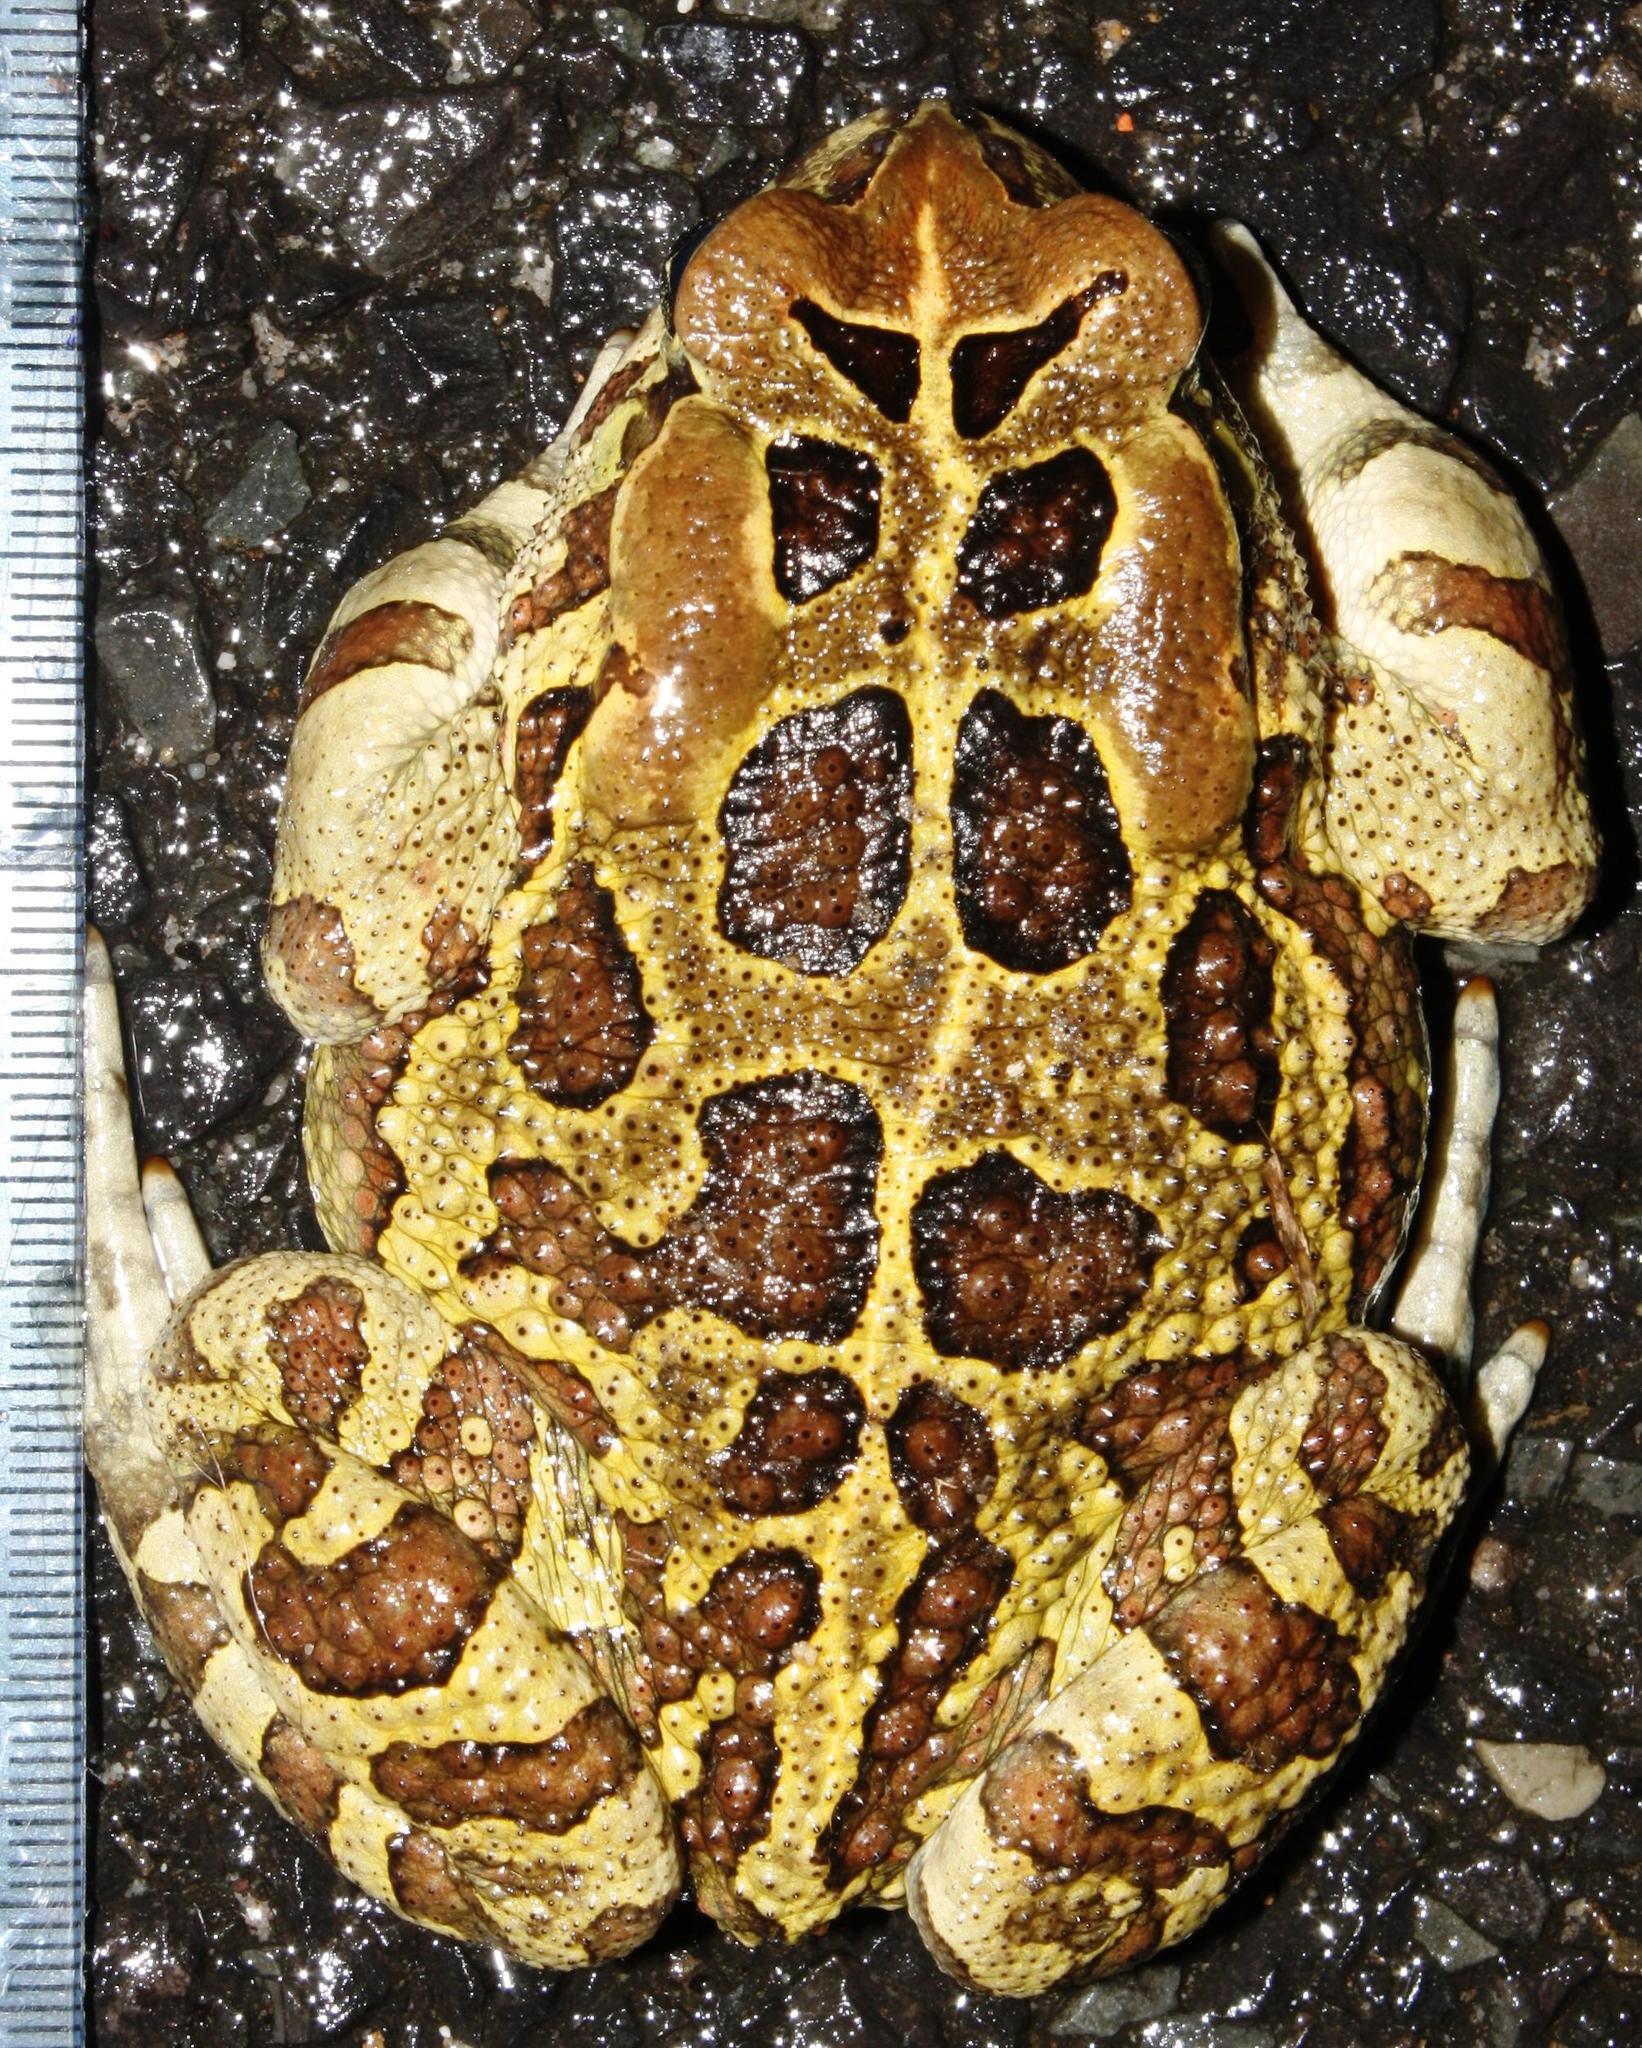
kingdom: Animalia
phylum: Chordata
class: Amphibia
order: Anura
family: Bufonidae
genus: Sclerophrys
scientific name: Sclerophrys pantherina
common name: Panther toad
